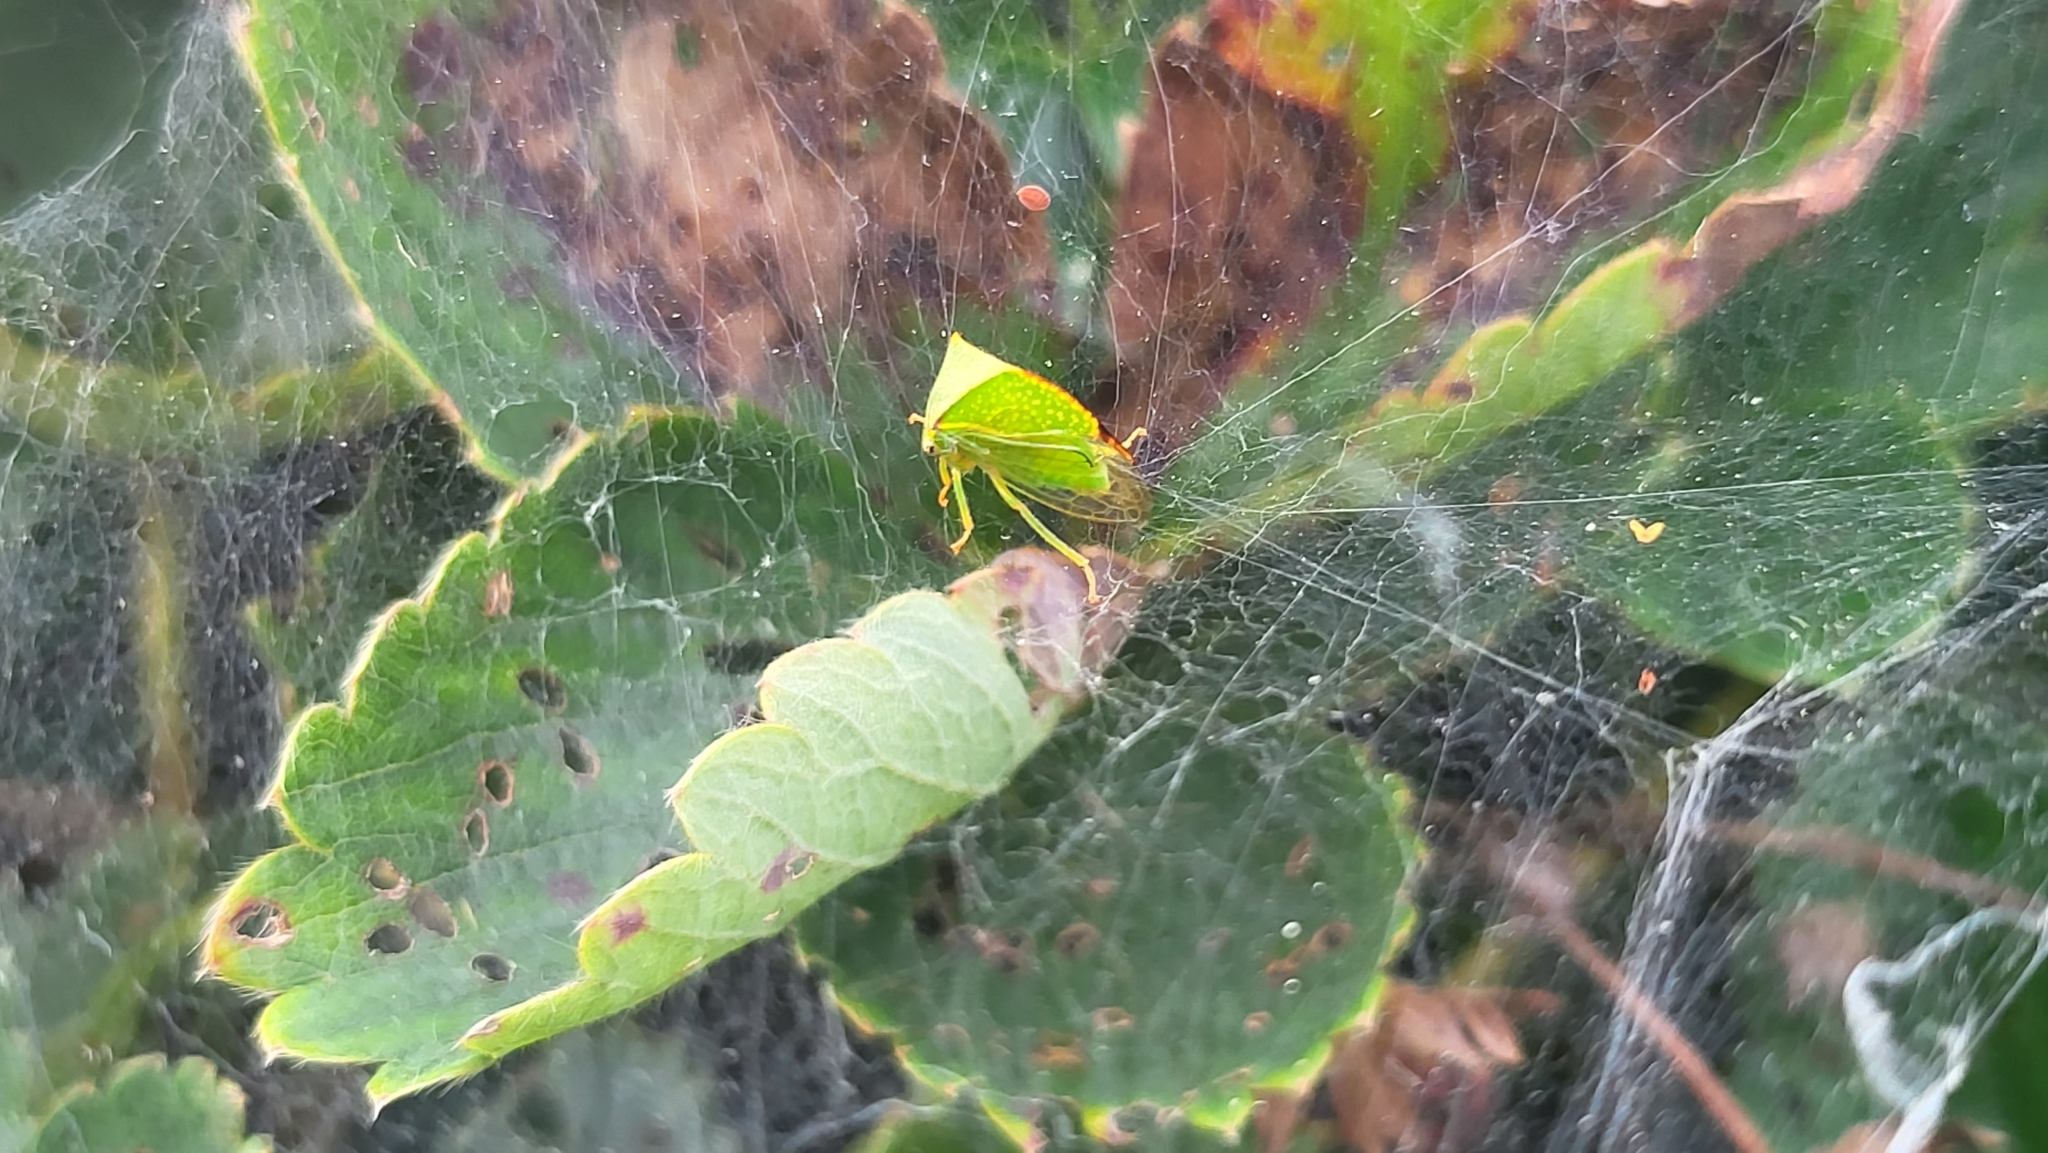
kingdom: Animalia
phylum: Arthropoda
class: Insecta
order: Hemiptera
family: Membracidae
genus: Stictocephala
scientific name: Stictocephala bisonia
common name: American buffalo treehopper
